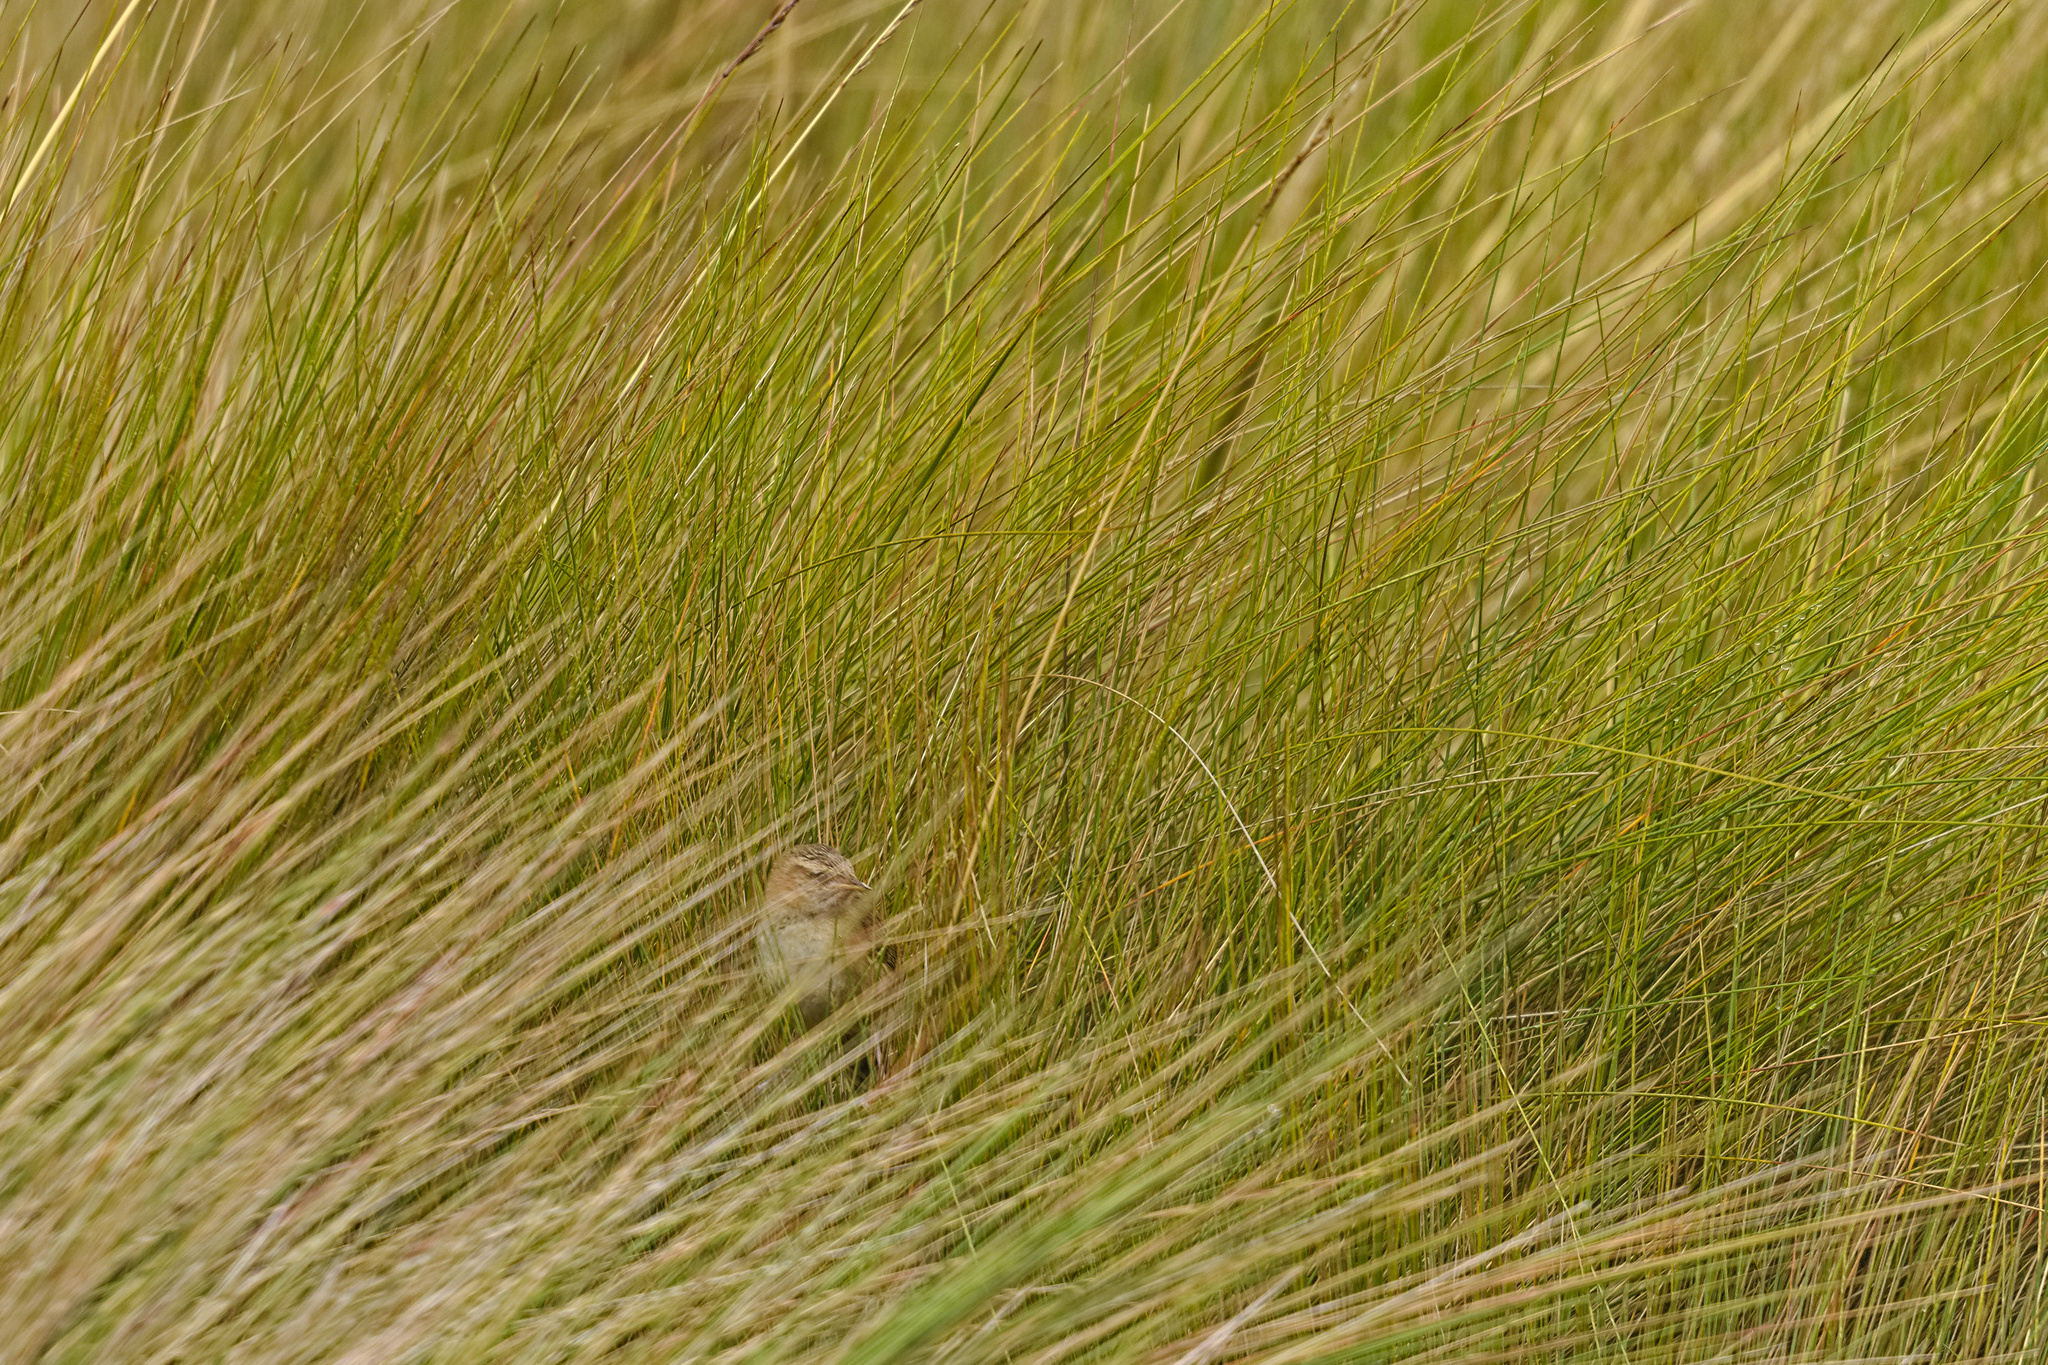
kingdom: Animalia
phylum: Chordata
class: Aves
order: Passeriformes
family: Troglodytidae
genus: Cistothorus
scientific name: Cistothorus platensis
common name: Sedge wren
